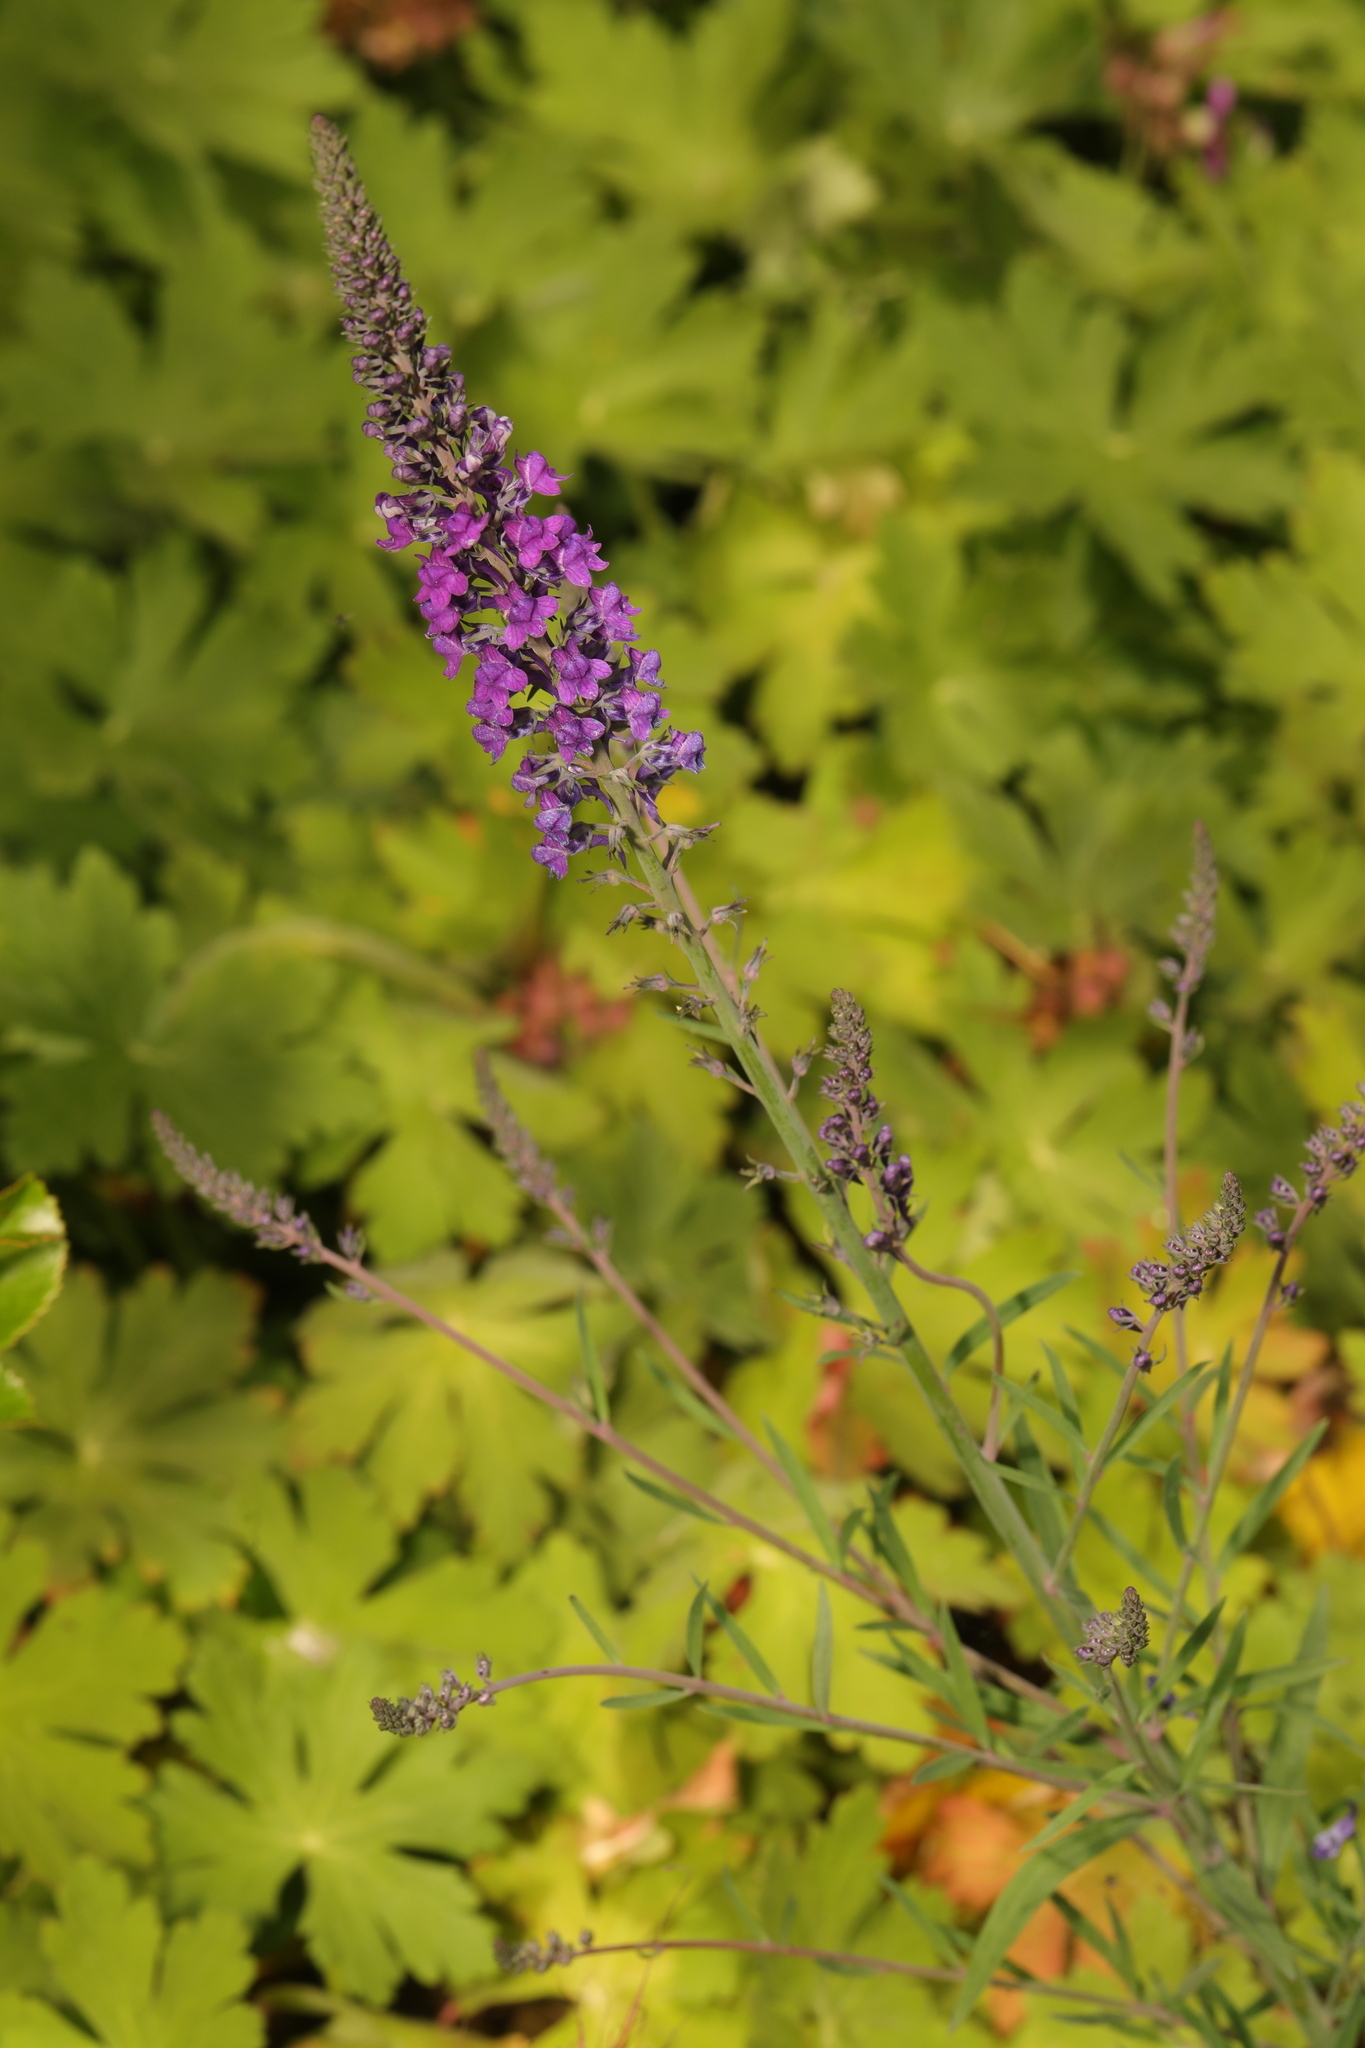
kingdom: Plantae
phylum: Tracheophyta
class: Magnoliopsida
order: Lamiales
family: Plantaginaceae
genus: Linaria
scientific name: Linaria purpurea
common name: Purple toadflax
